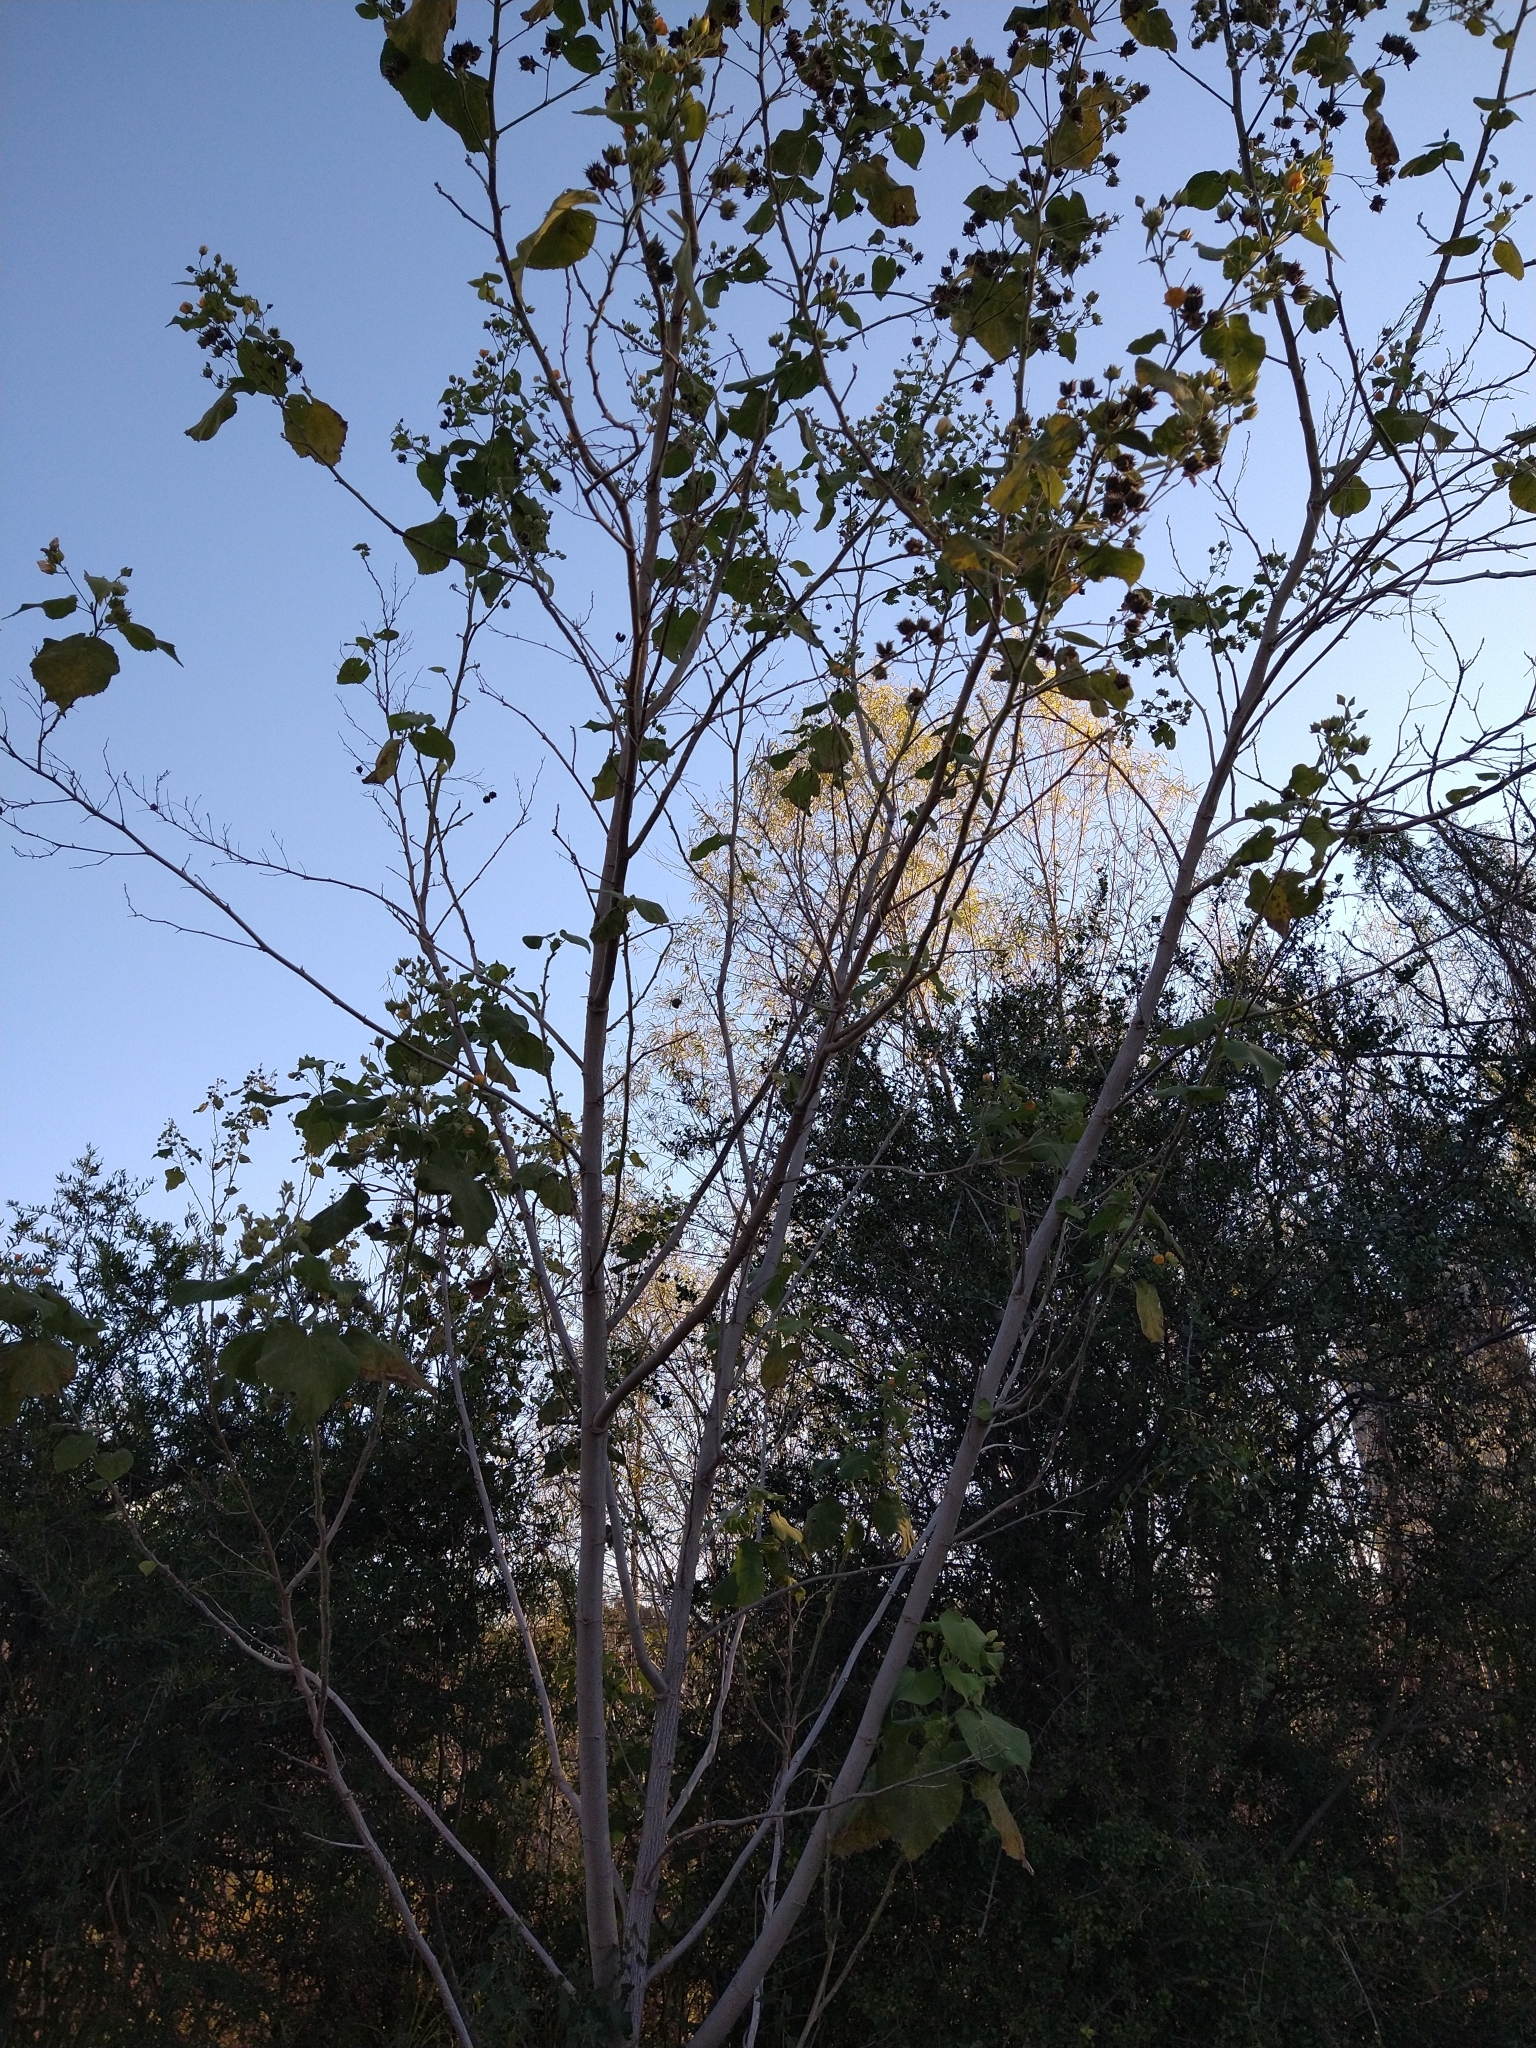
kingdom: Plantae
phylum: Tracheophyta
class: Magnoliopsida
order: Malvales
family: Malvaceae
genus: Abutilon
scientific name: Abutilon grandifolium
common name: Hairy abutilon
